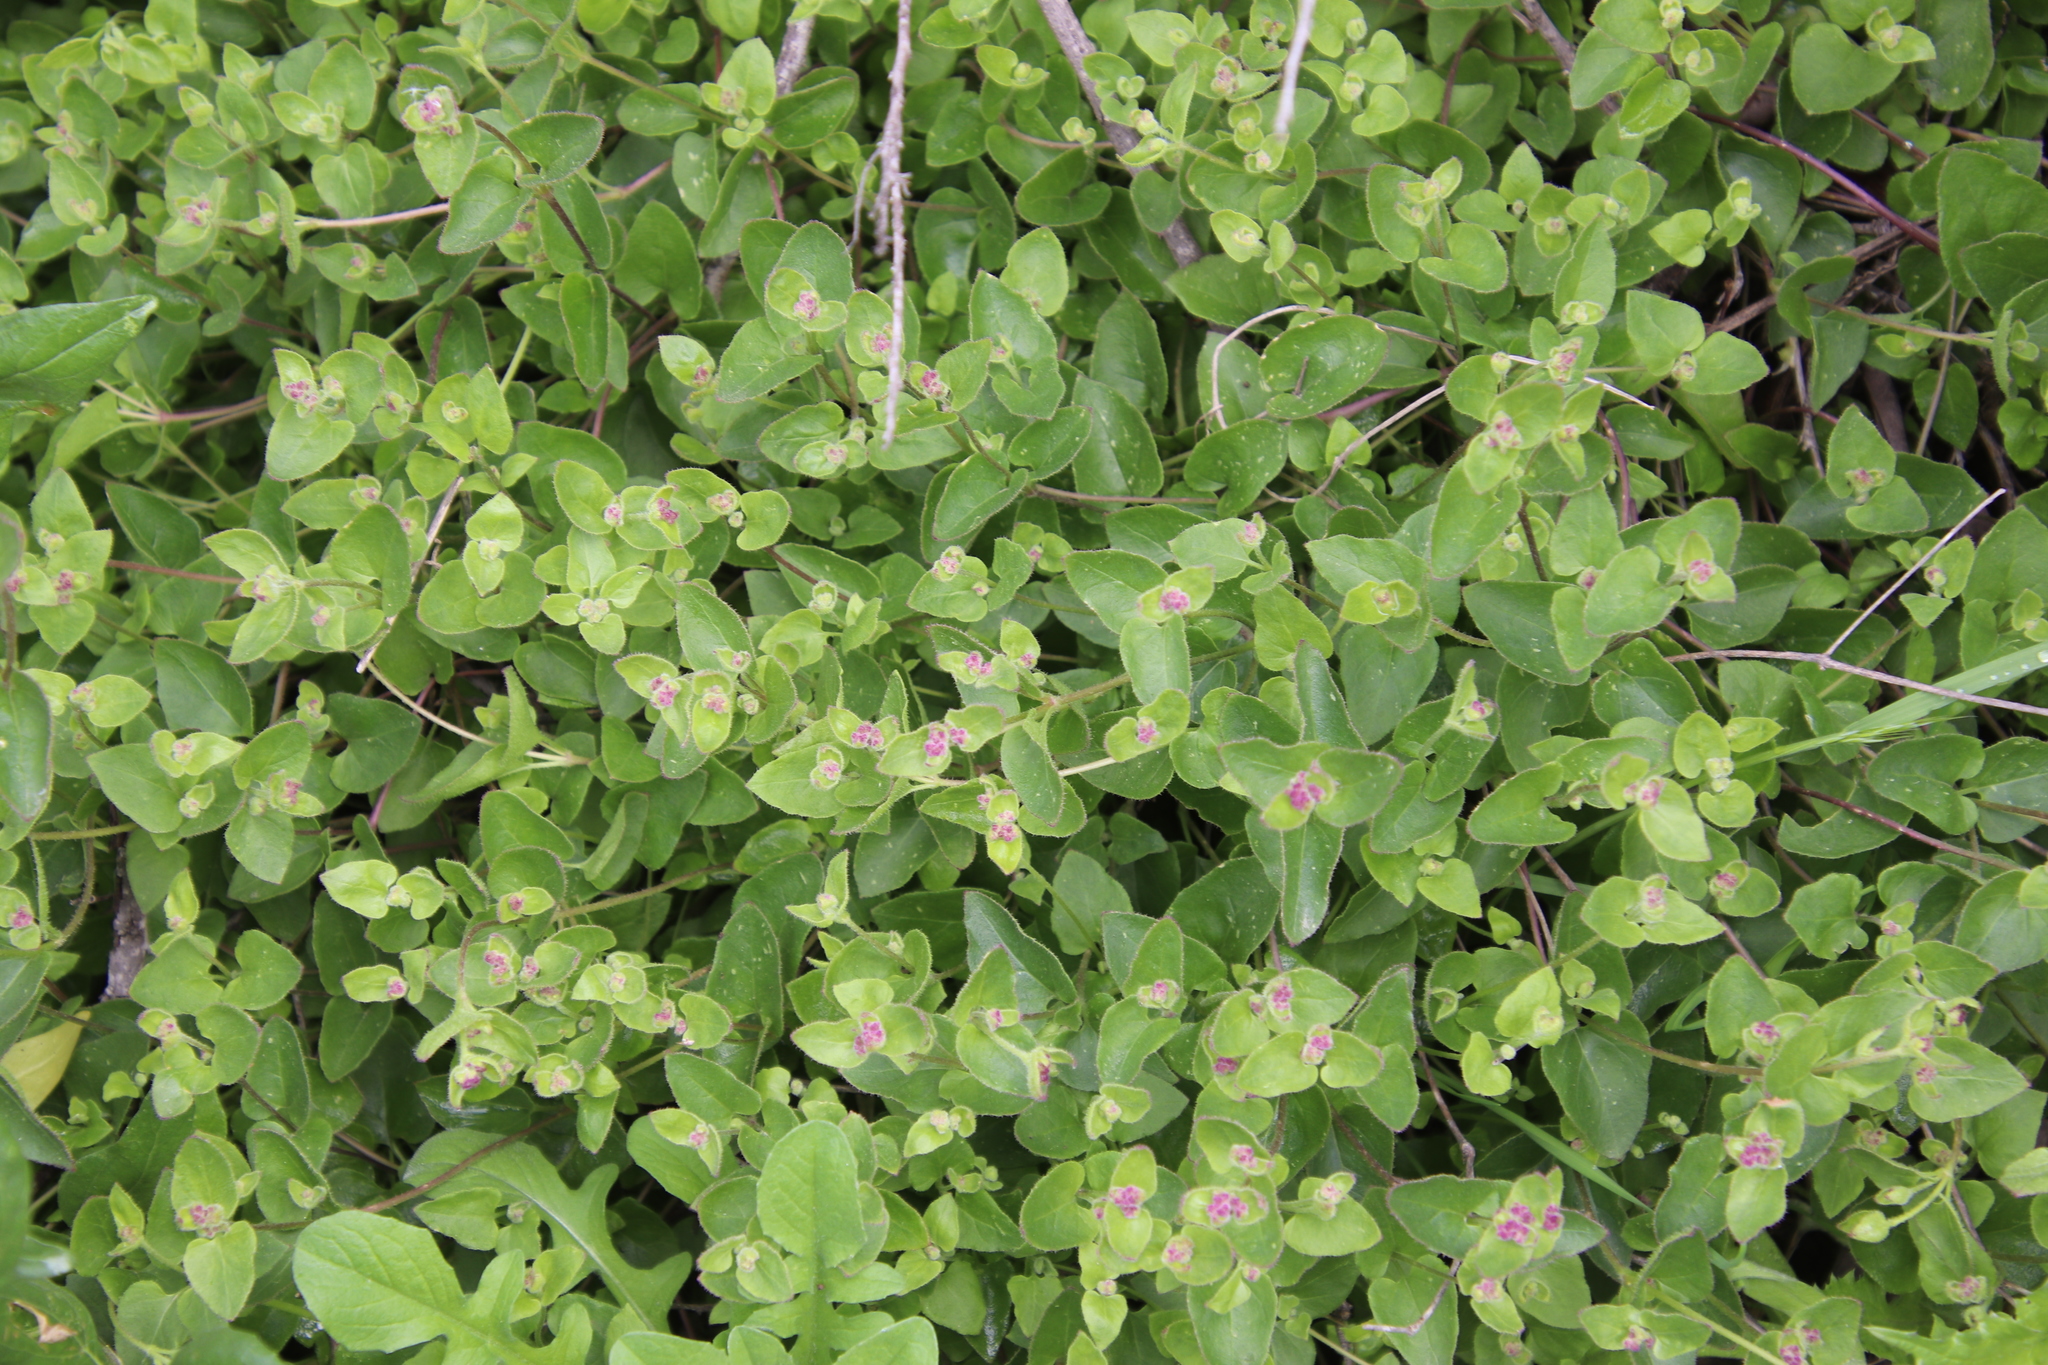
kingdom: Plantae
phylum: Tracheophyta
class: Magnoliopsida
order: Caryophyllales
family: Nyctaginaceae
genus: Mirabilis
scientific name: Mirabilis laevis
